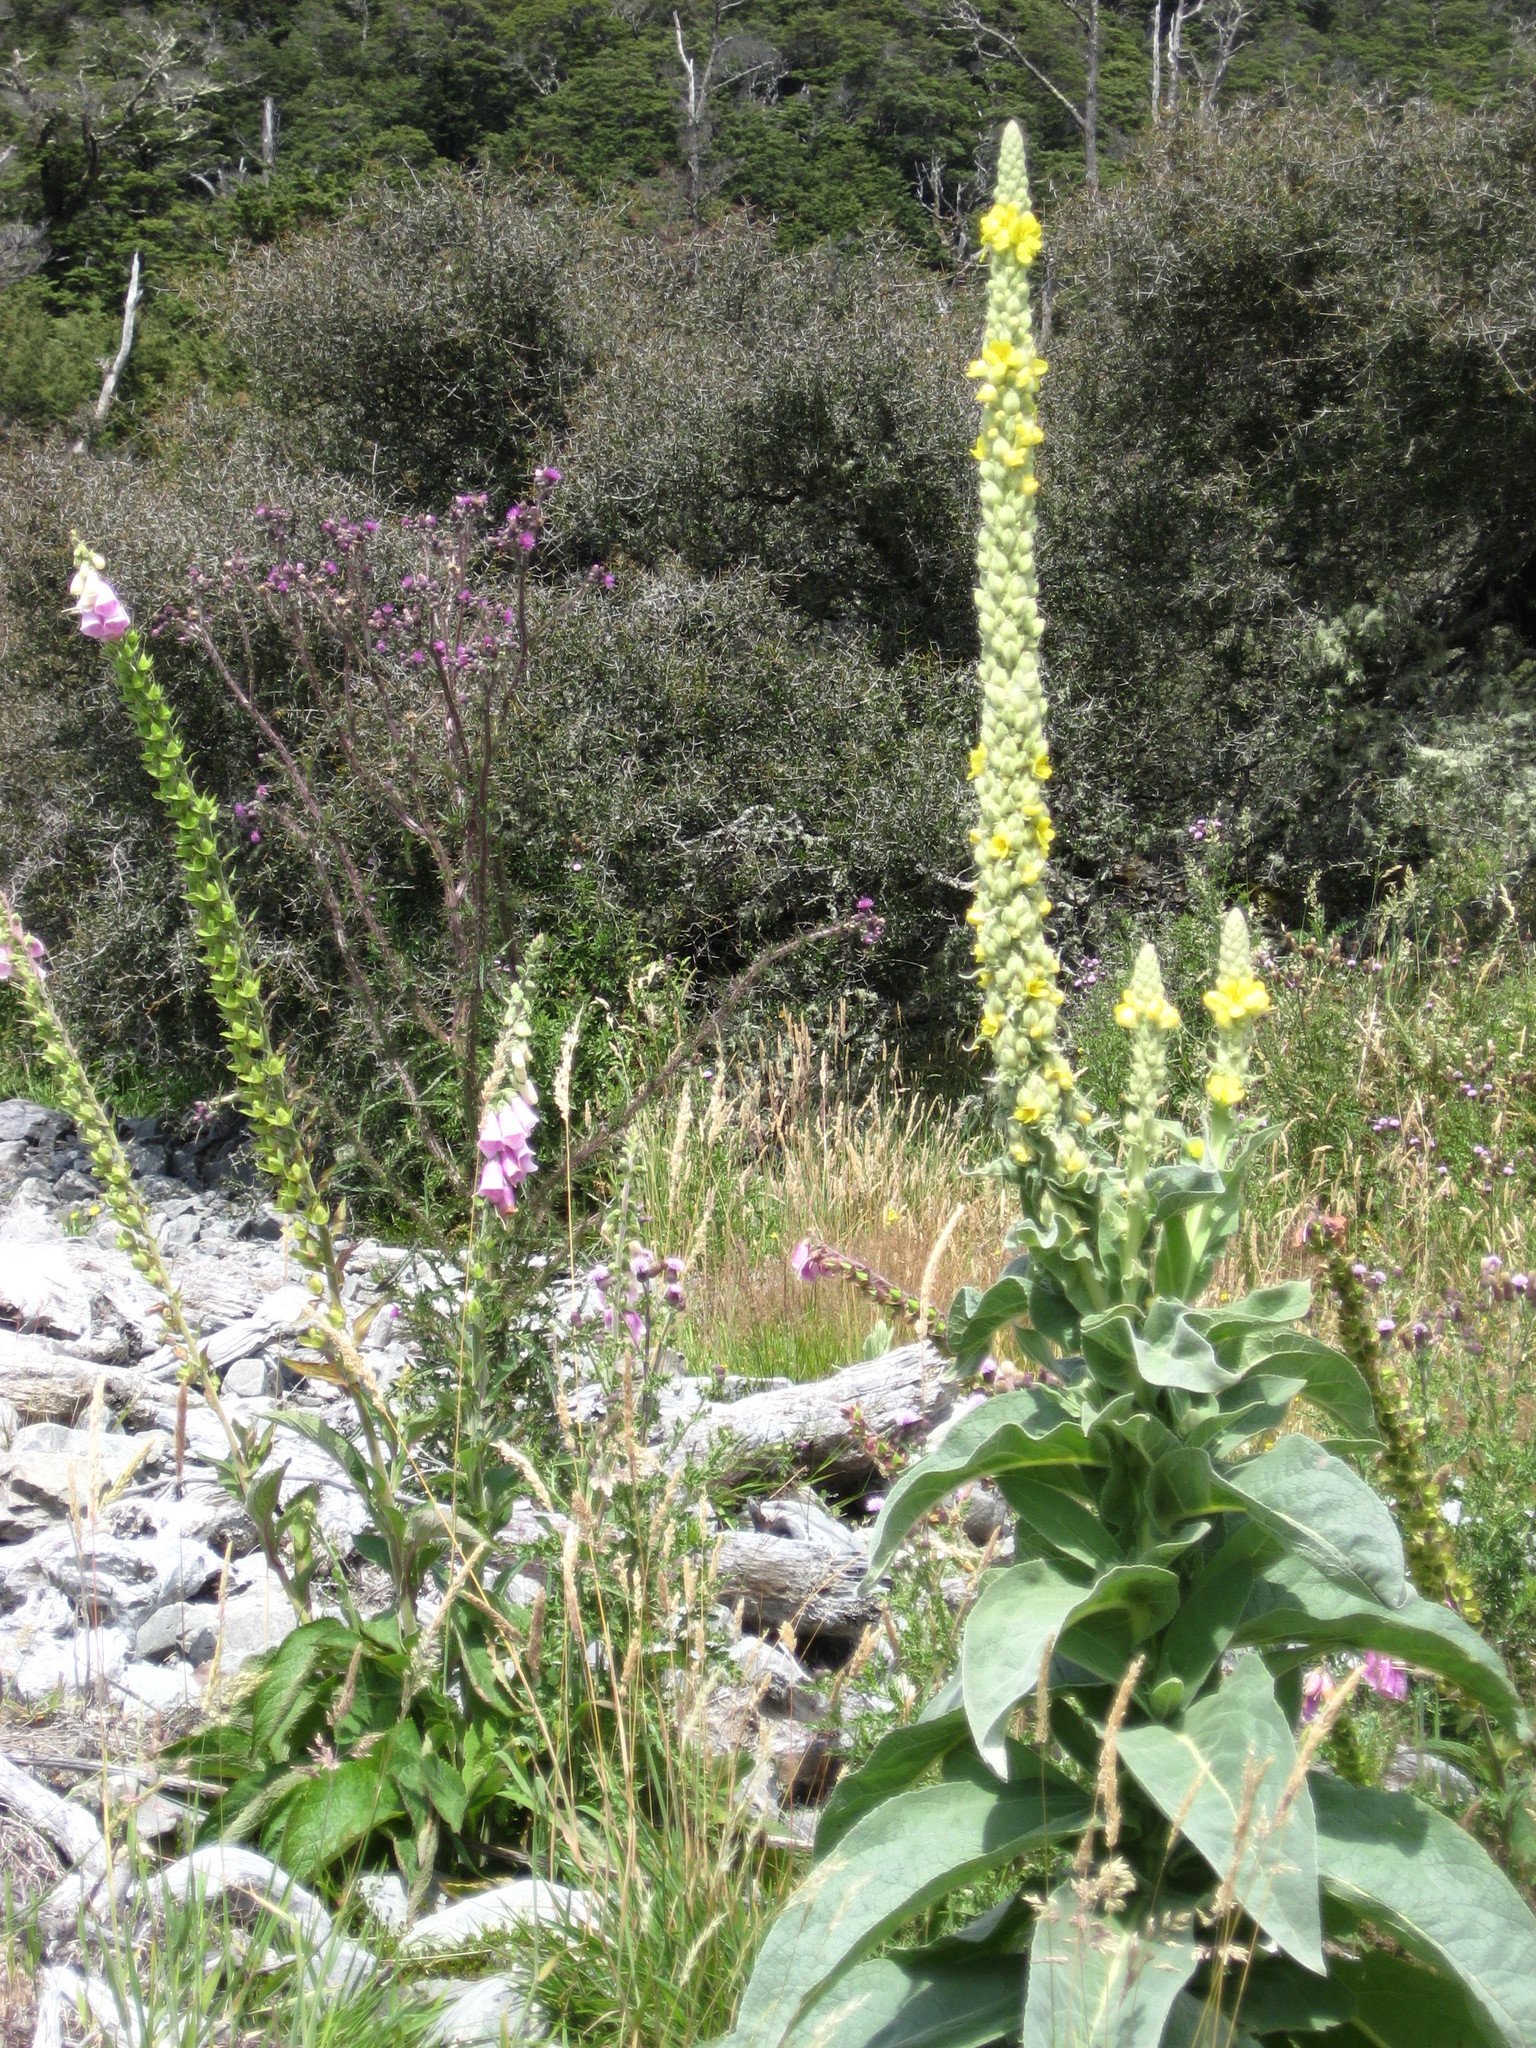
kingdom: Plantae
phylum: Tracheophyta
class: Magnoliopsida
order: Lamiales
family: Scrophulariaceae
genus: Verbascum
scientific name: Verbascum thapsus
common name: Common mullein
